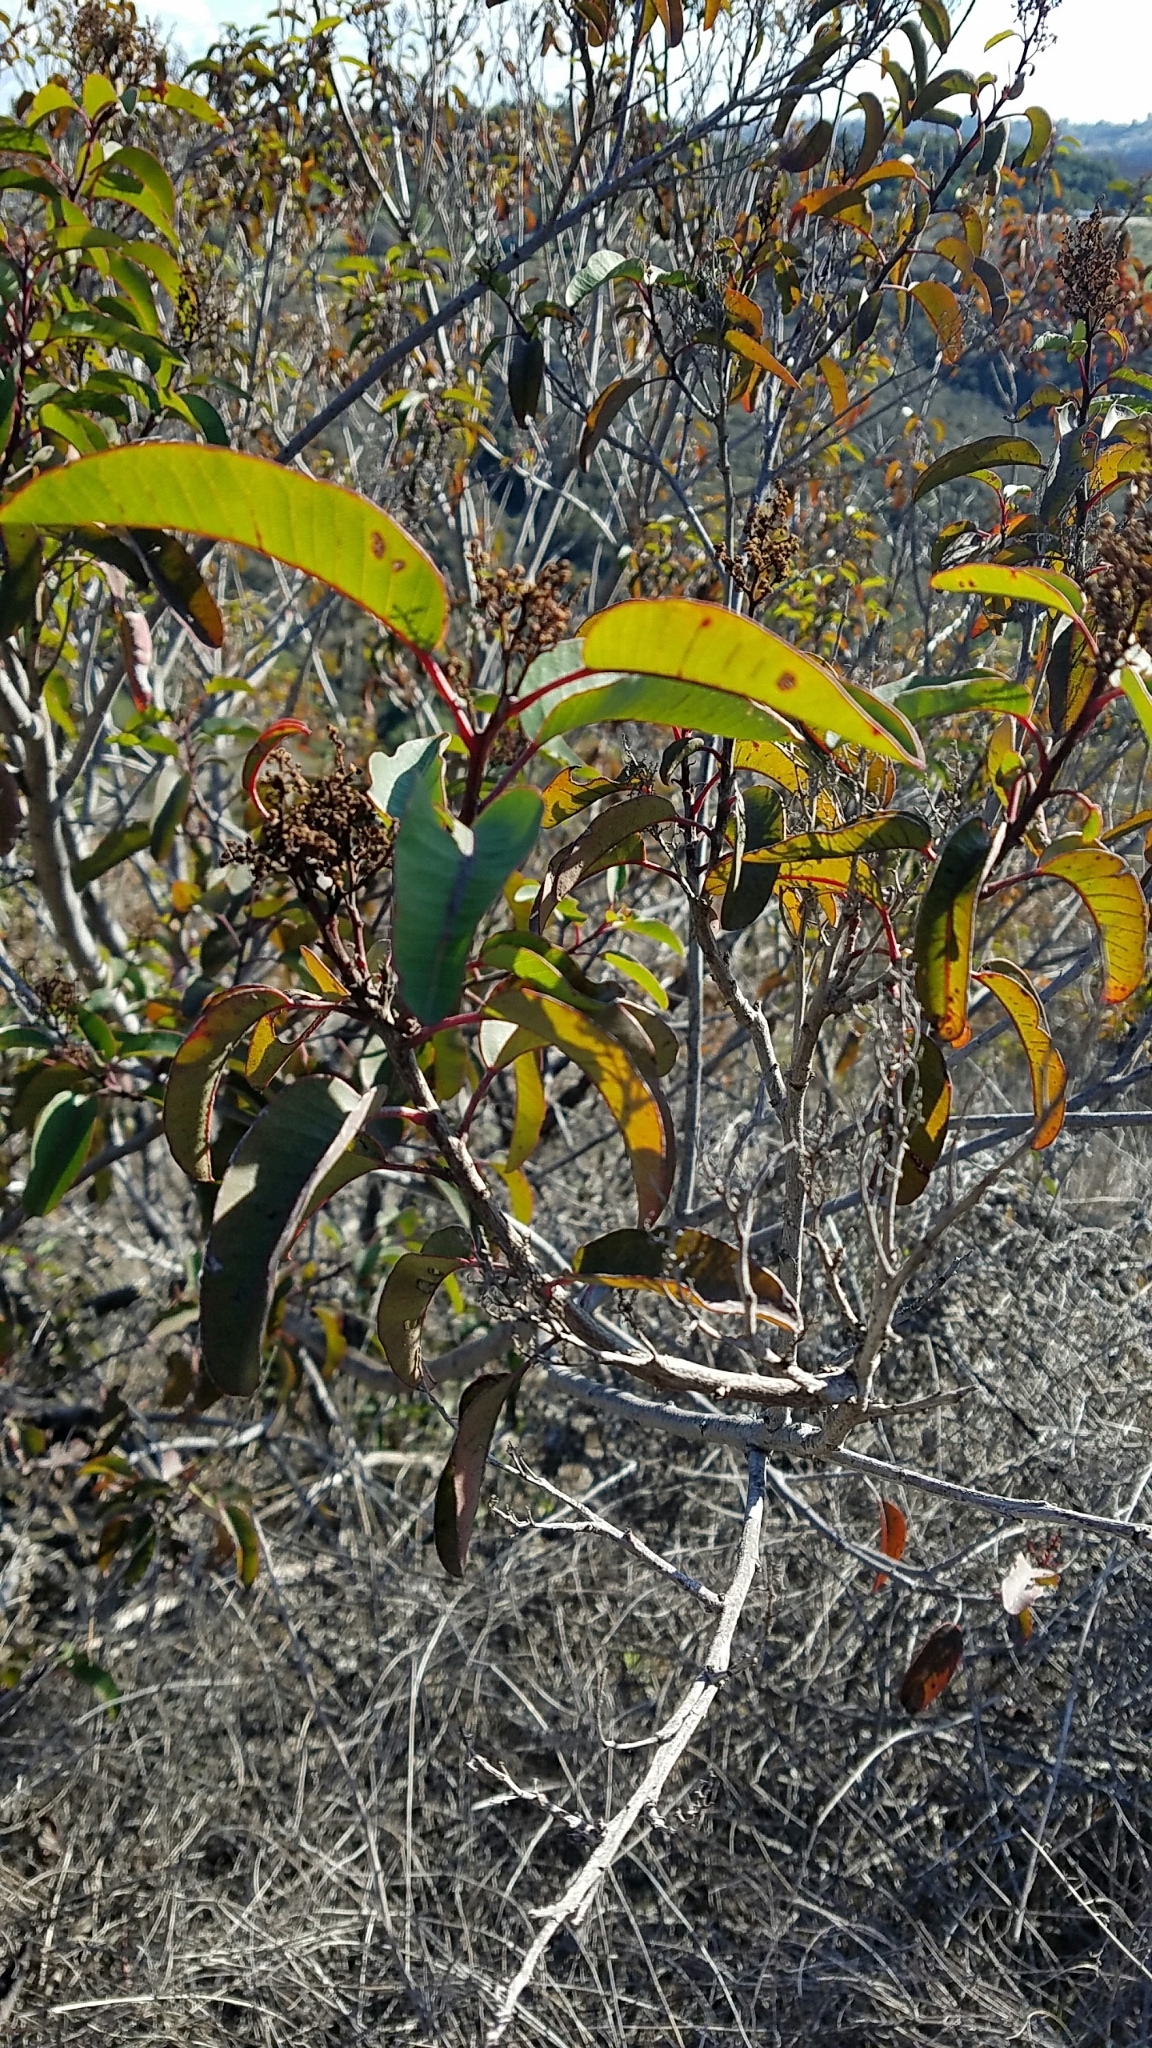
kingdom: Plantae
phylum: Tracheophyta
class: Magnoliopsida
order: Sapindales
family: Anacardiaceae
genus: Malosma
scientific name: Malosma laurina
